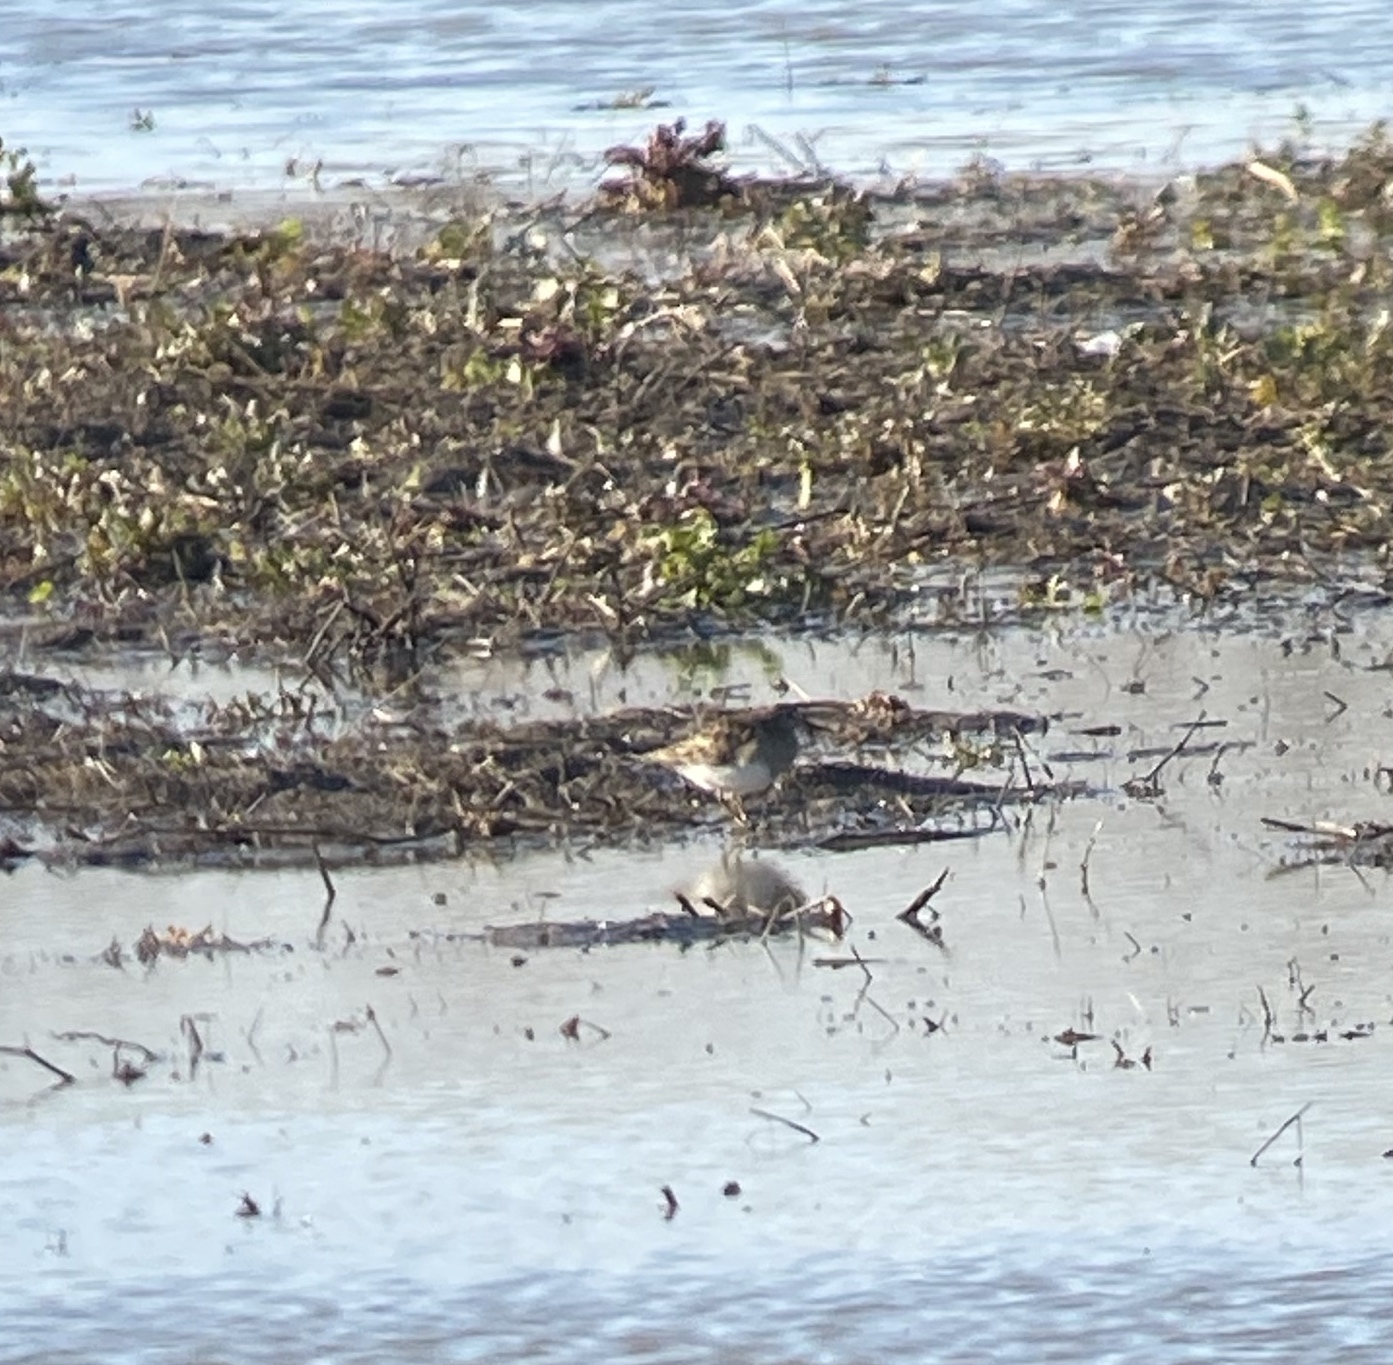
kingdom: Animalia
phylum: Chordata
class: Aves
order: Charadriiformes
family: Scolopacidae
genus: Calidris
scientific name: Calidris melanotos
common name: Pectoral sandpiper
